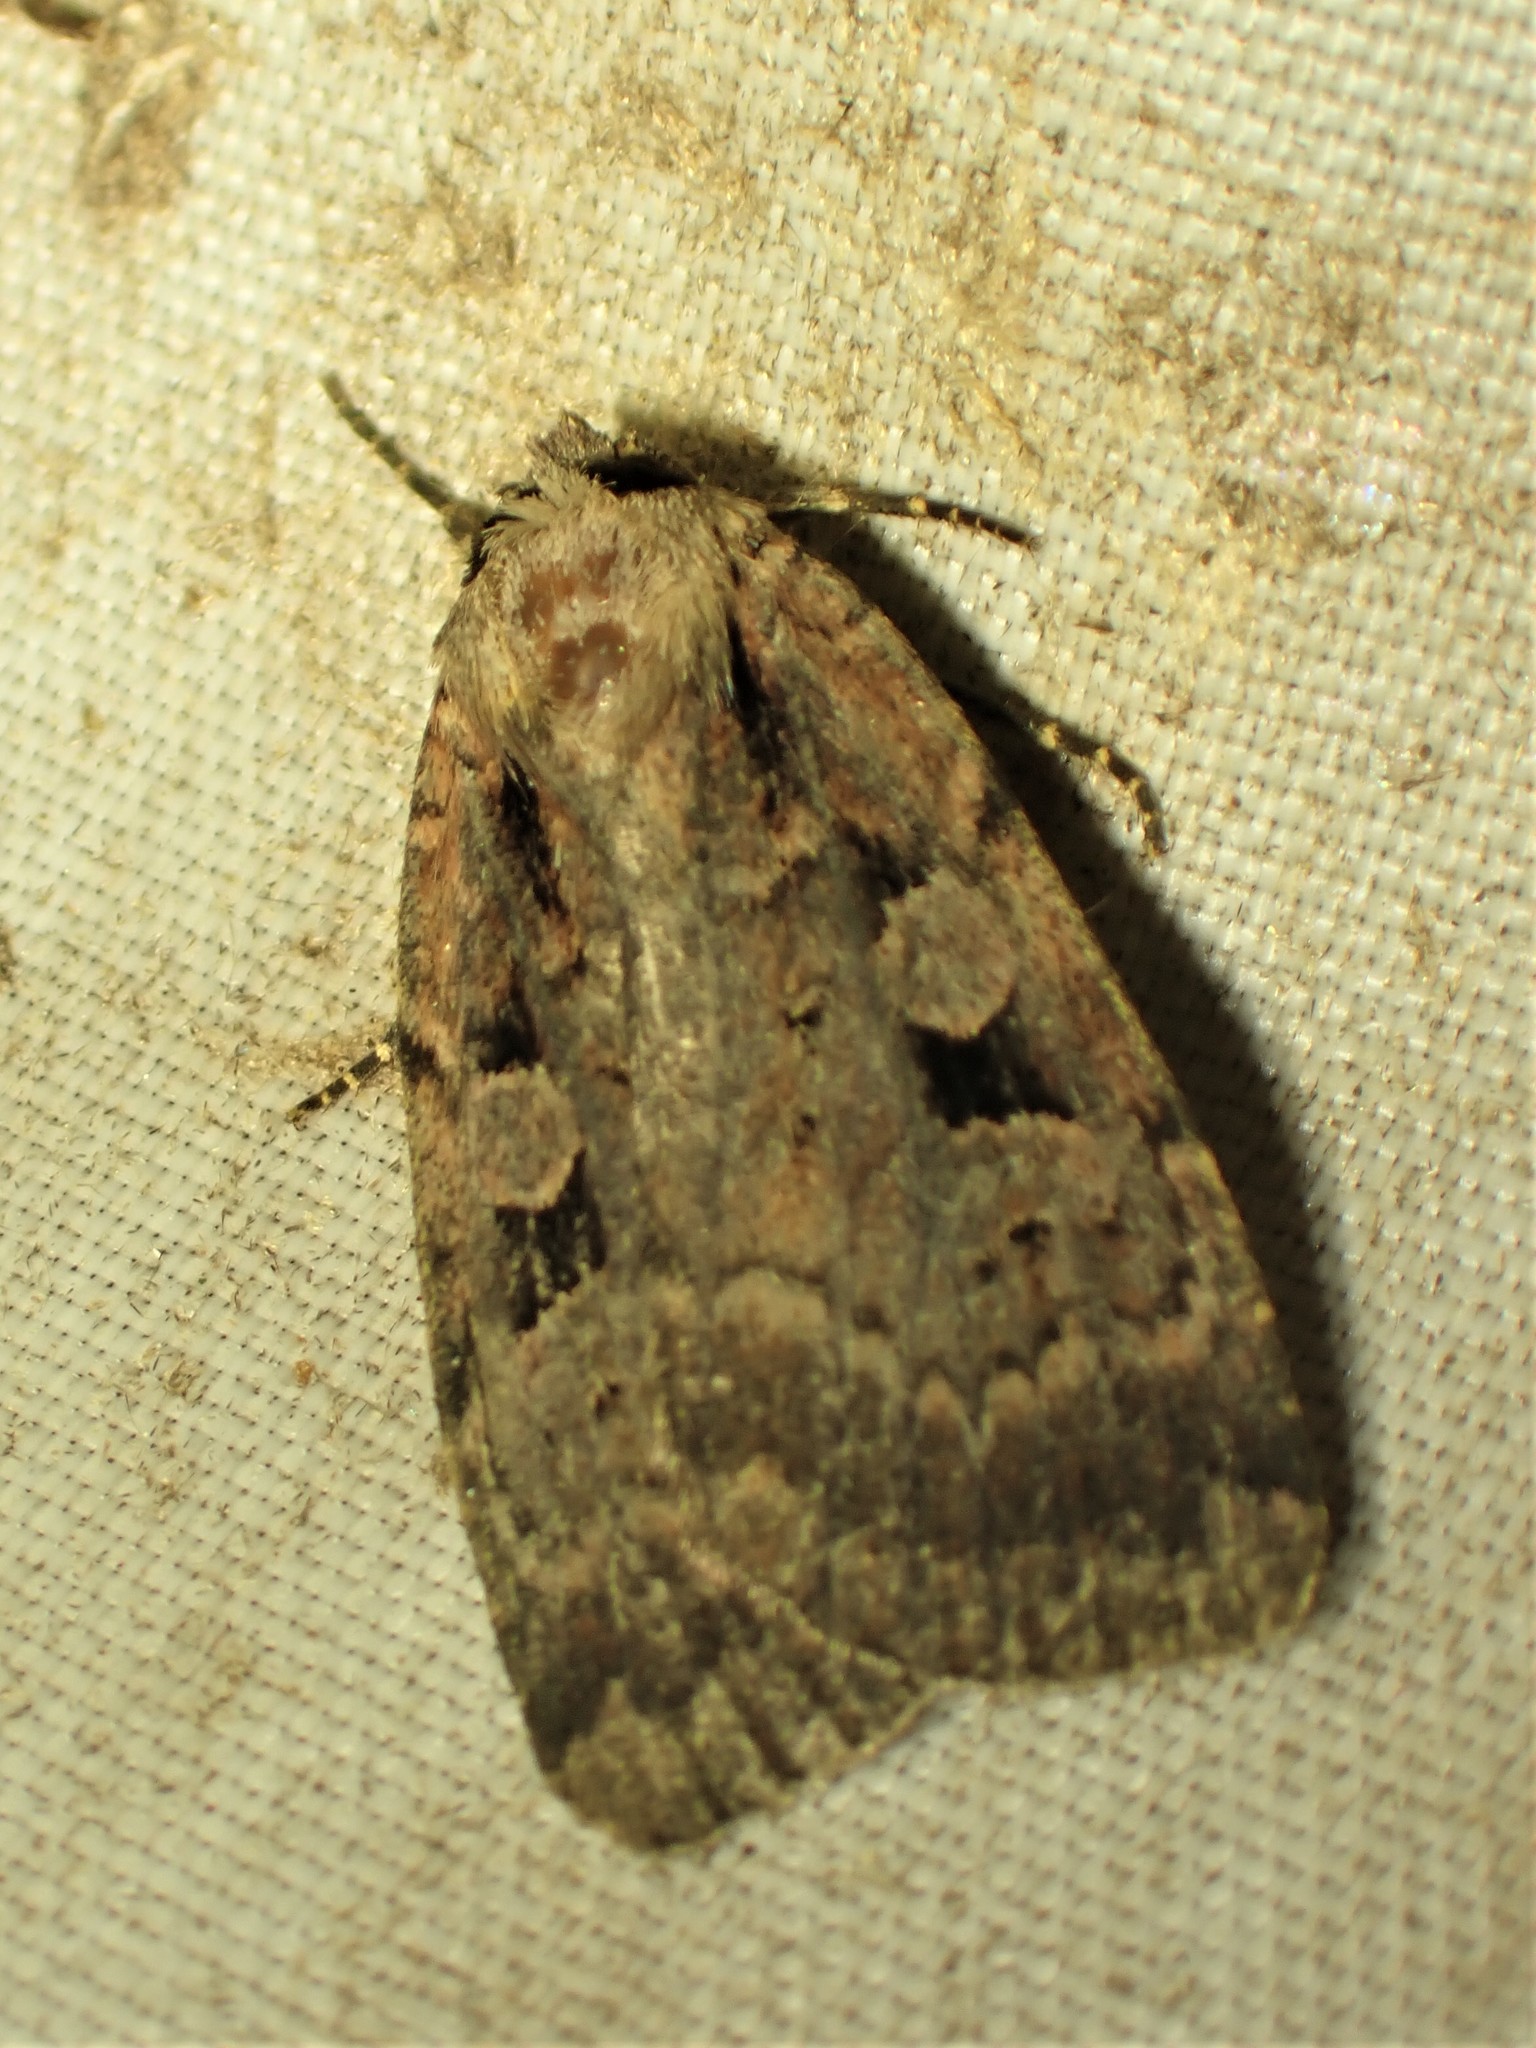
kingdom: Animalia
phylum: Arthropoda
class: Insecta
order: Lepidoptera
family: Noctuidae
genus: Eueretagrotis
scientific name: Eueretagrotis perattentus
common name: Two-spot dart moth
